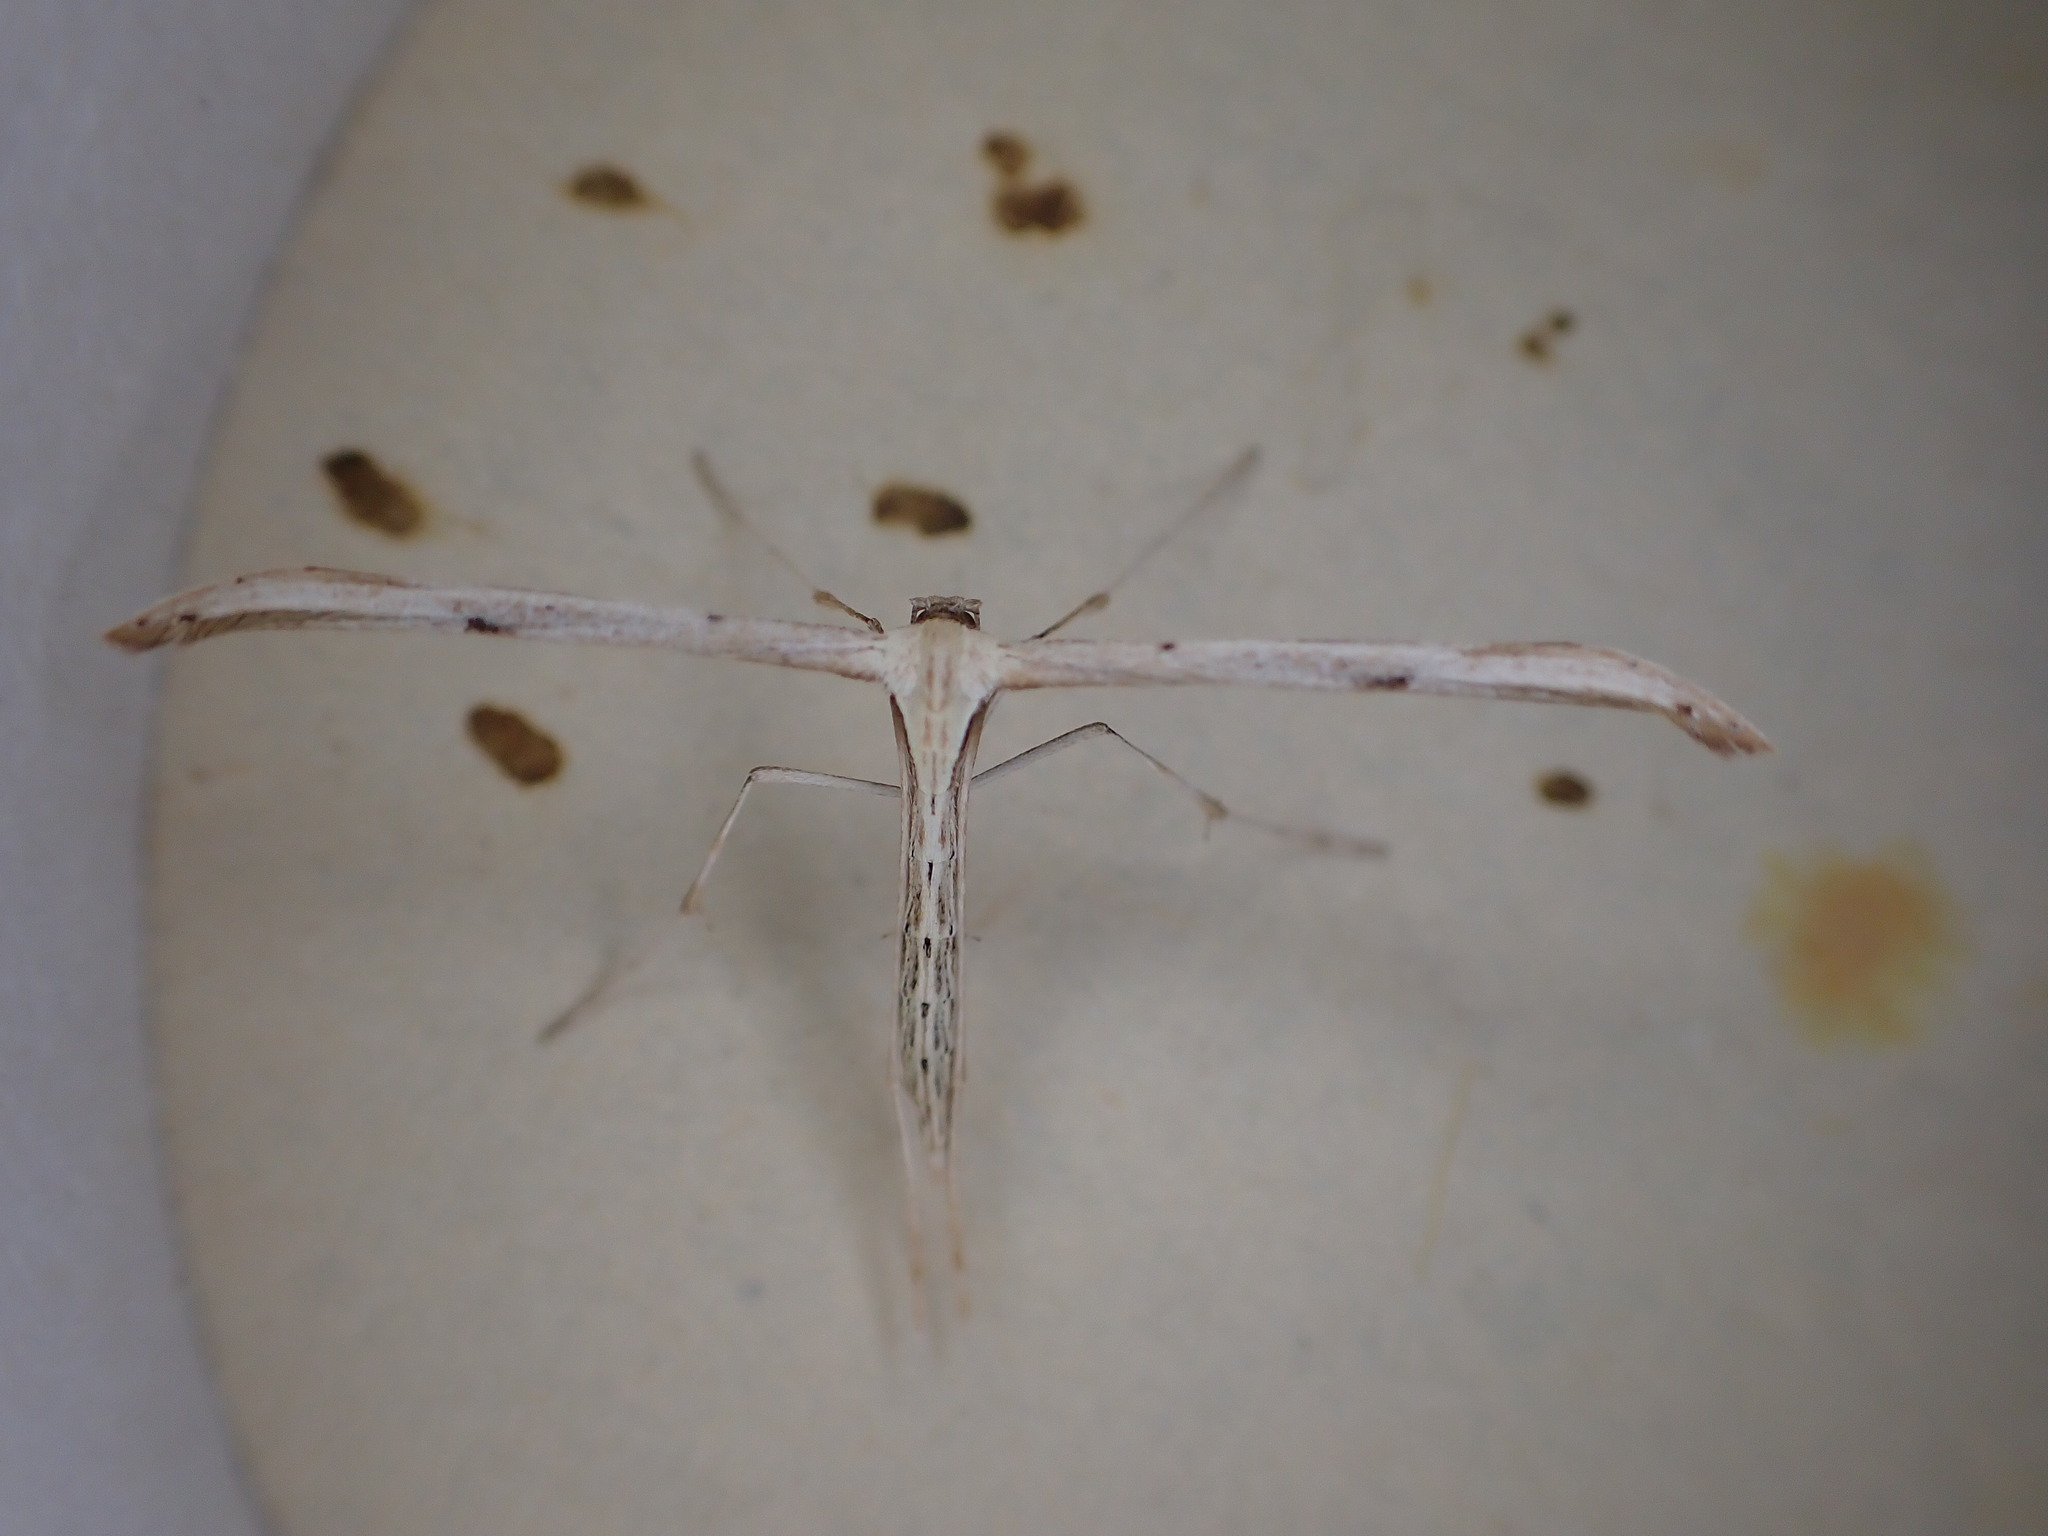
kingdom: Animalia
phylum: Arthropoda
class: Insecta
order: Lepidoptera
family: Pterophoridae
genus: Emmelina
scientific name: Emmelina monodactyla
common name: Common plume
